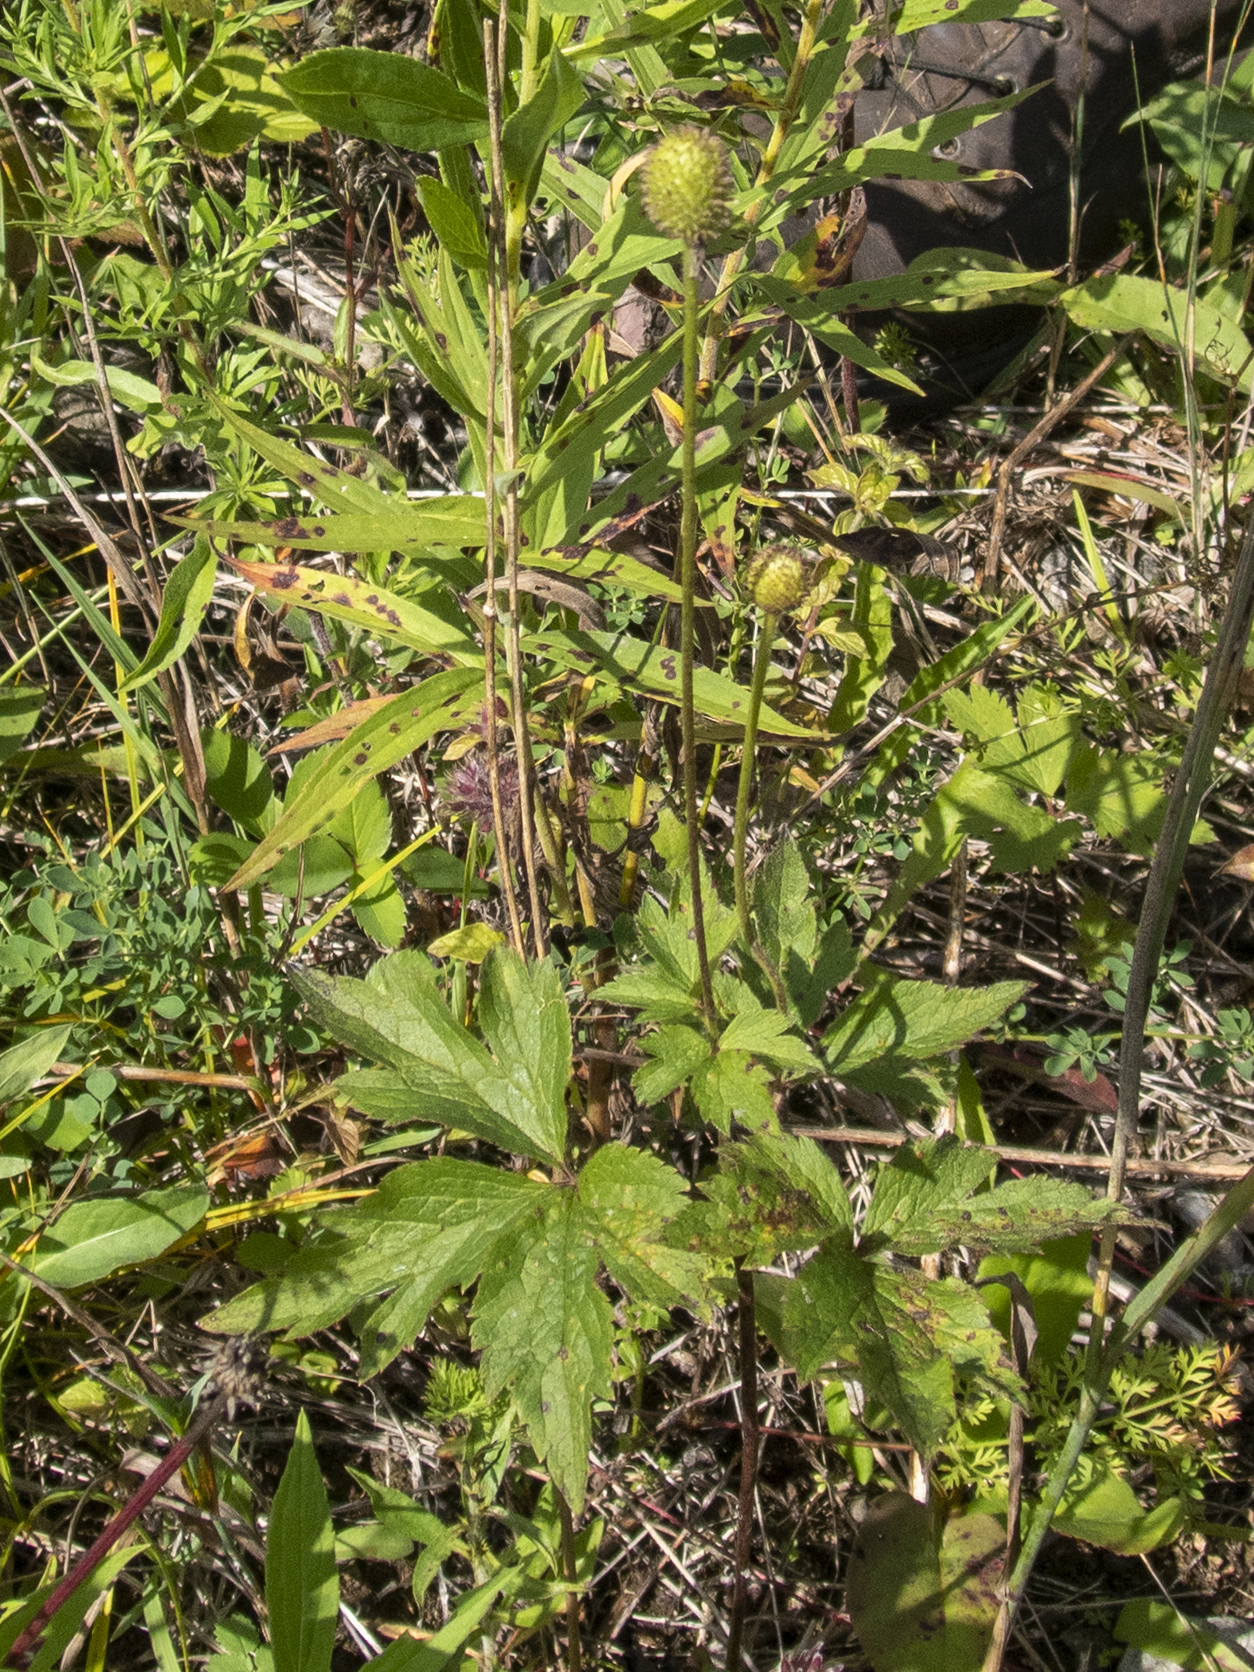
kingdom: Plantae
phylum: Tracheophyta
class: Magnoliopsida
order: Ranunculales
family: Ranunculaceae
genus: Anemone
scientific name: Anemone virginiana
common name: Tall anemone
